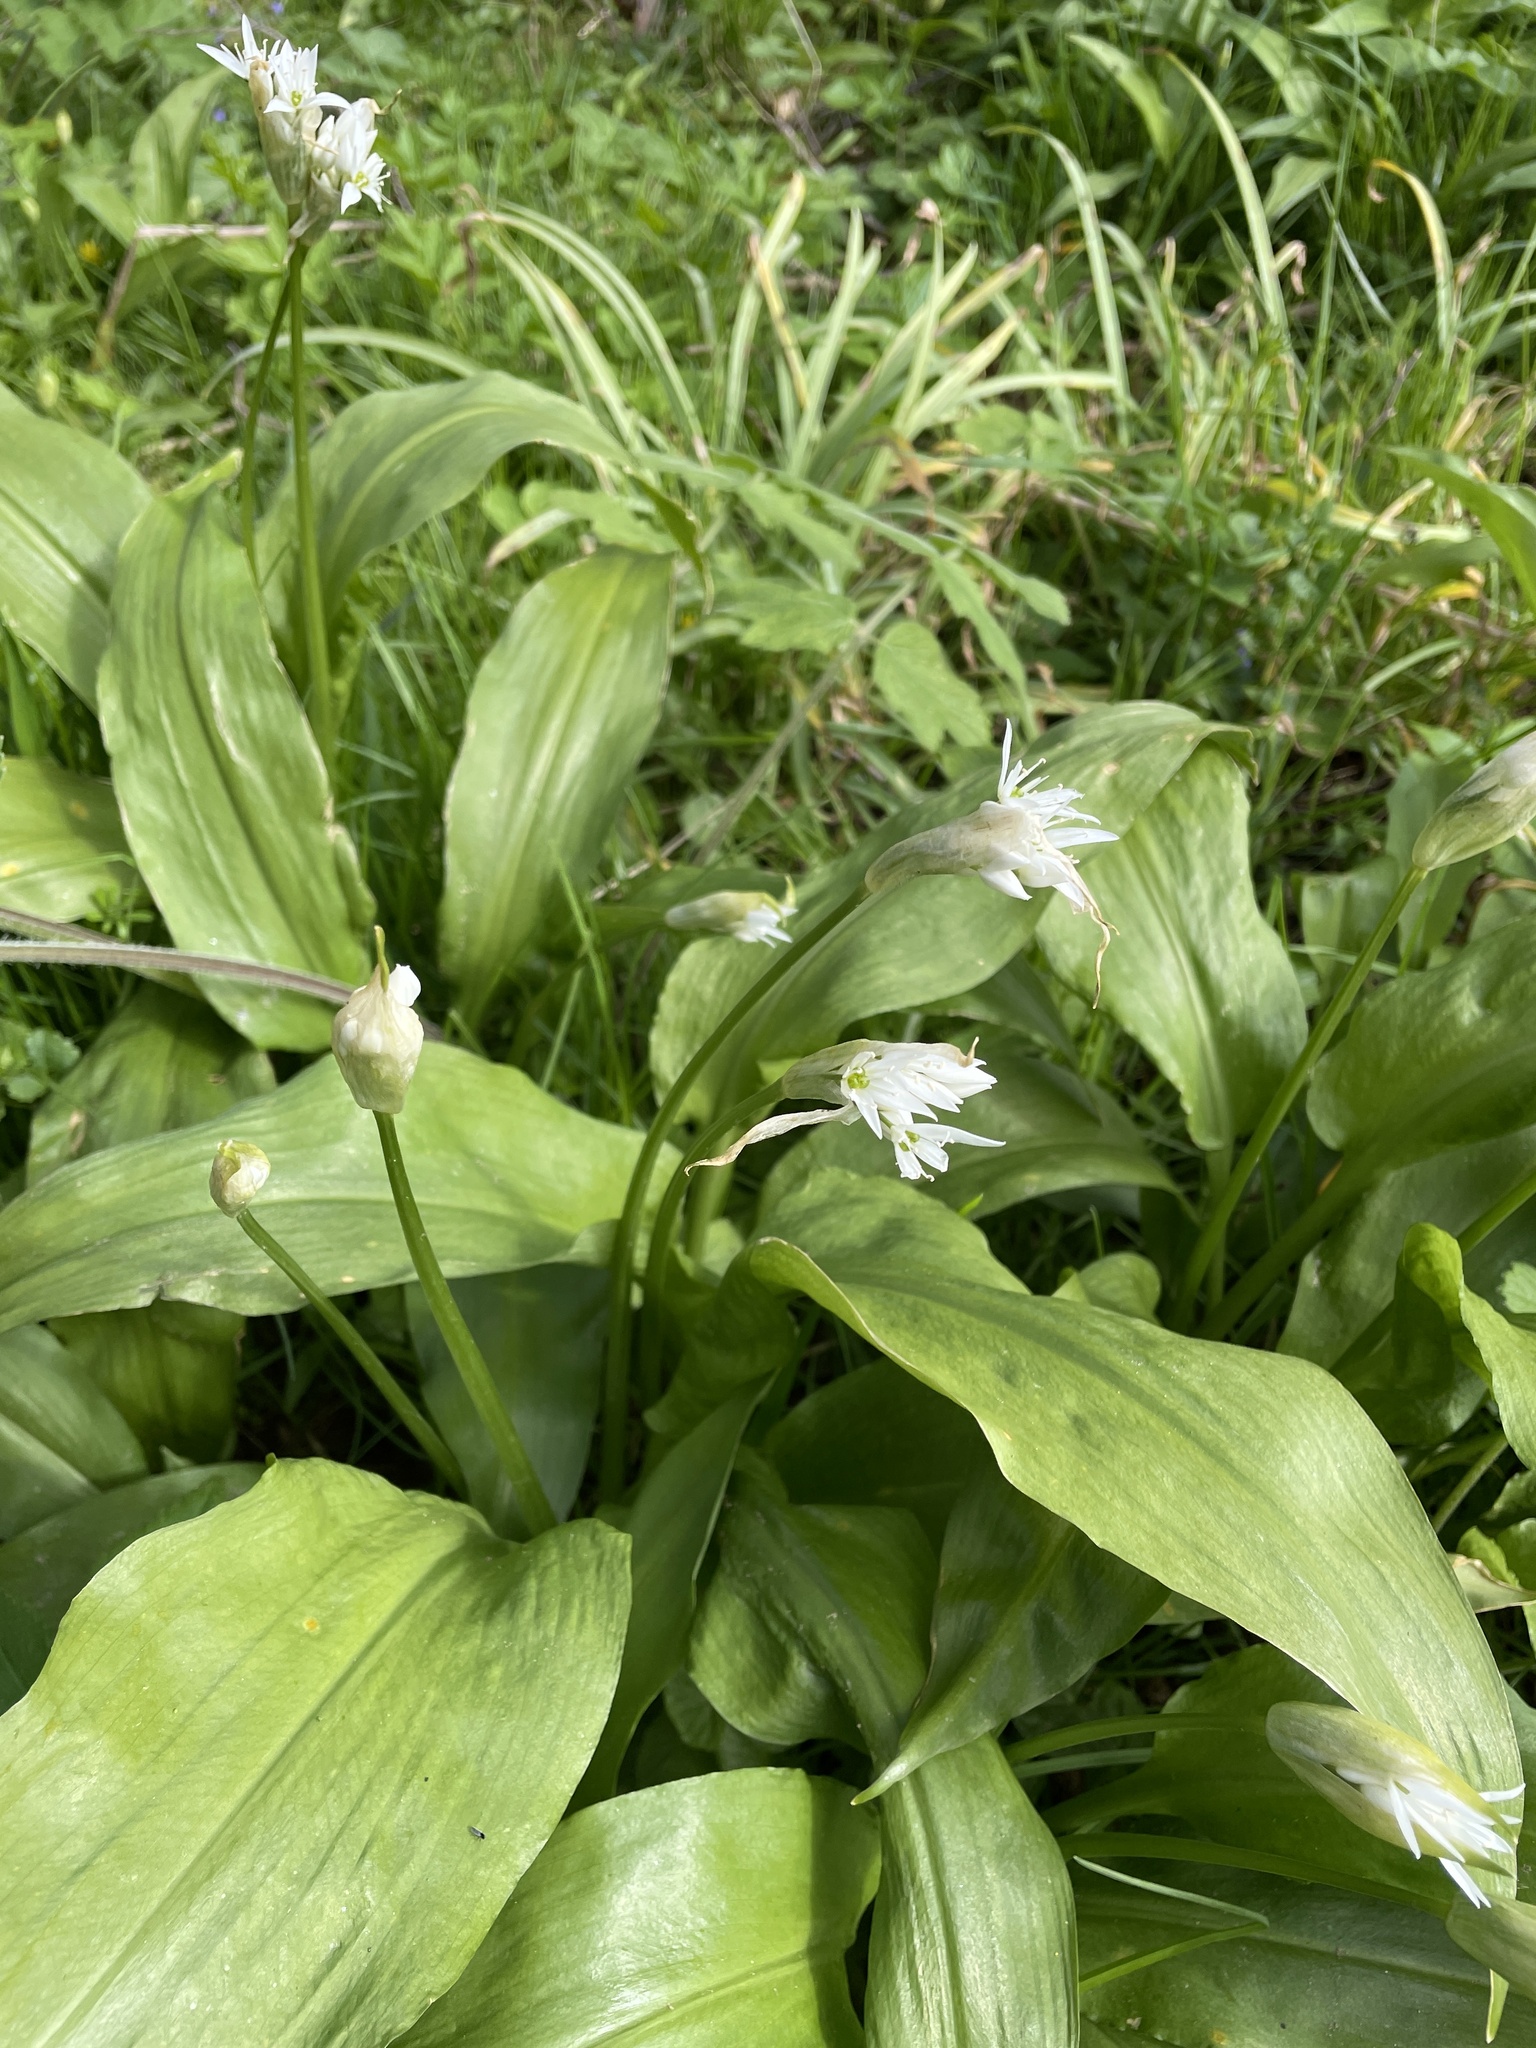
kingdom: Plantae
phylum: Tracheophyta
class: Liliopsida
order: Asparagales
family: Amaryllidaceae
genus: Allium
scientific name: Allium ursinum
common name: Ramsons
